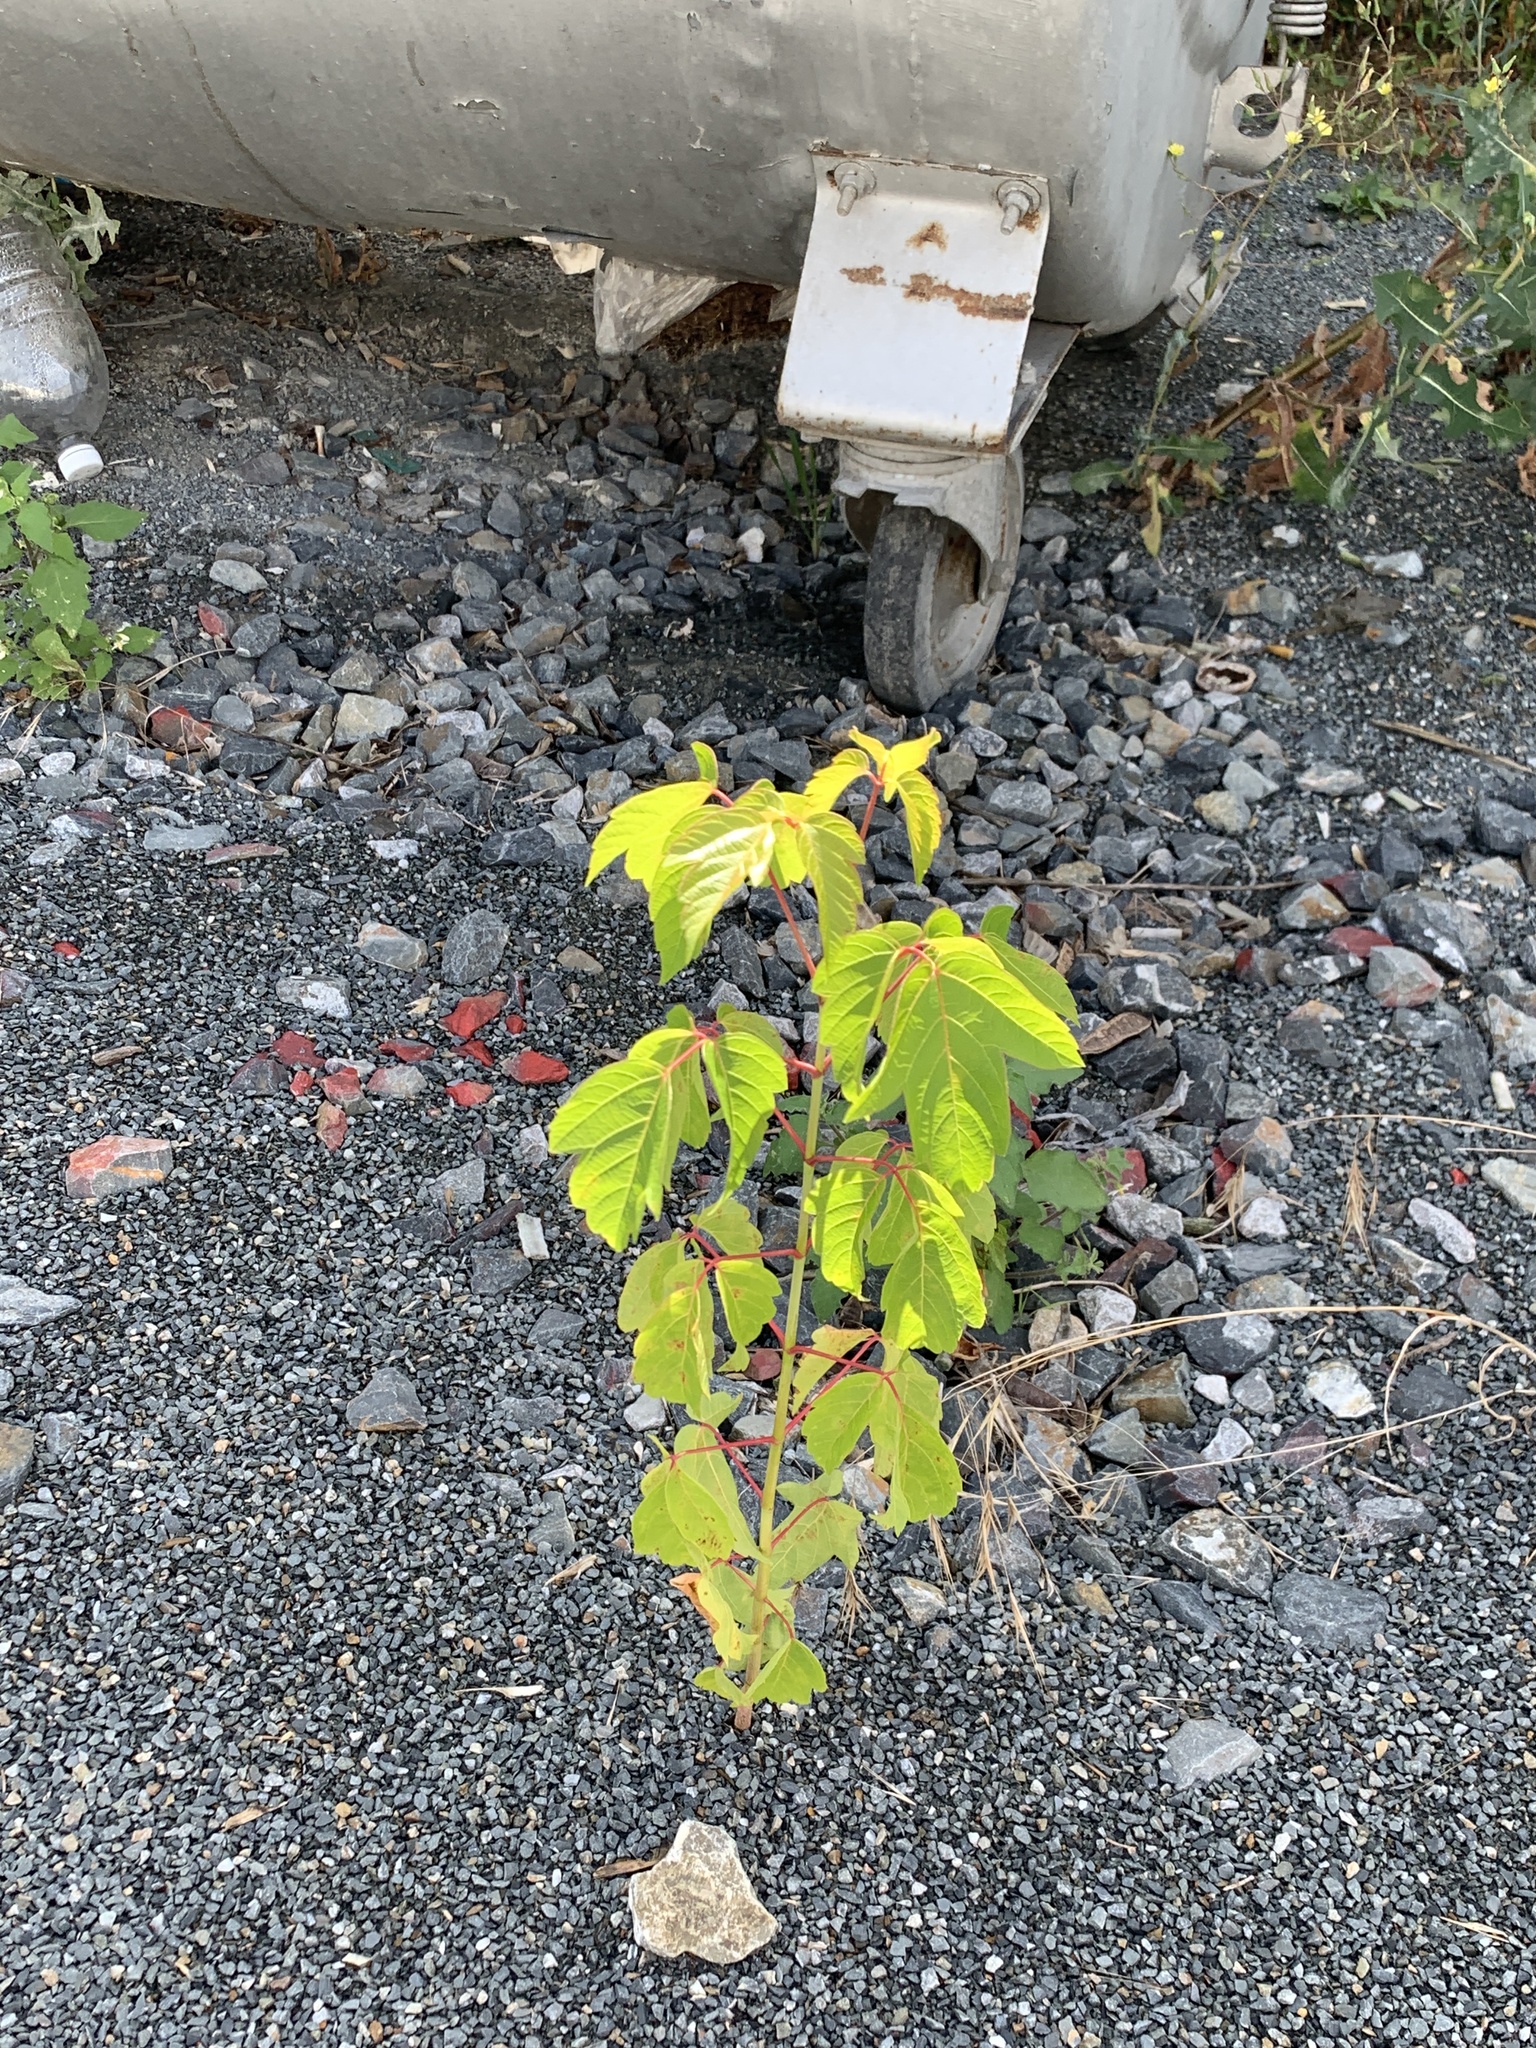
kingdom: Plantae
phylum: Tracheophyta
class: Magnoliopsida
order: Sapindales
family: Sapindaceae
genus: Acer
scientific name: Acer negundo
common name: Ashleaf maple
